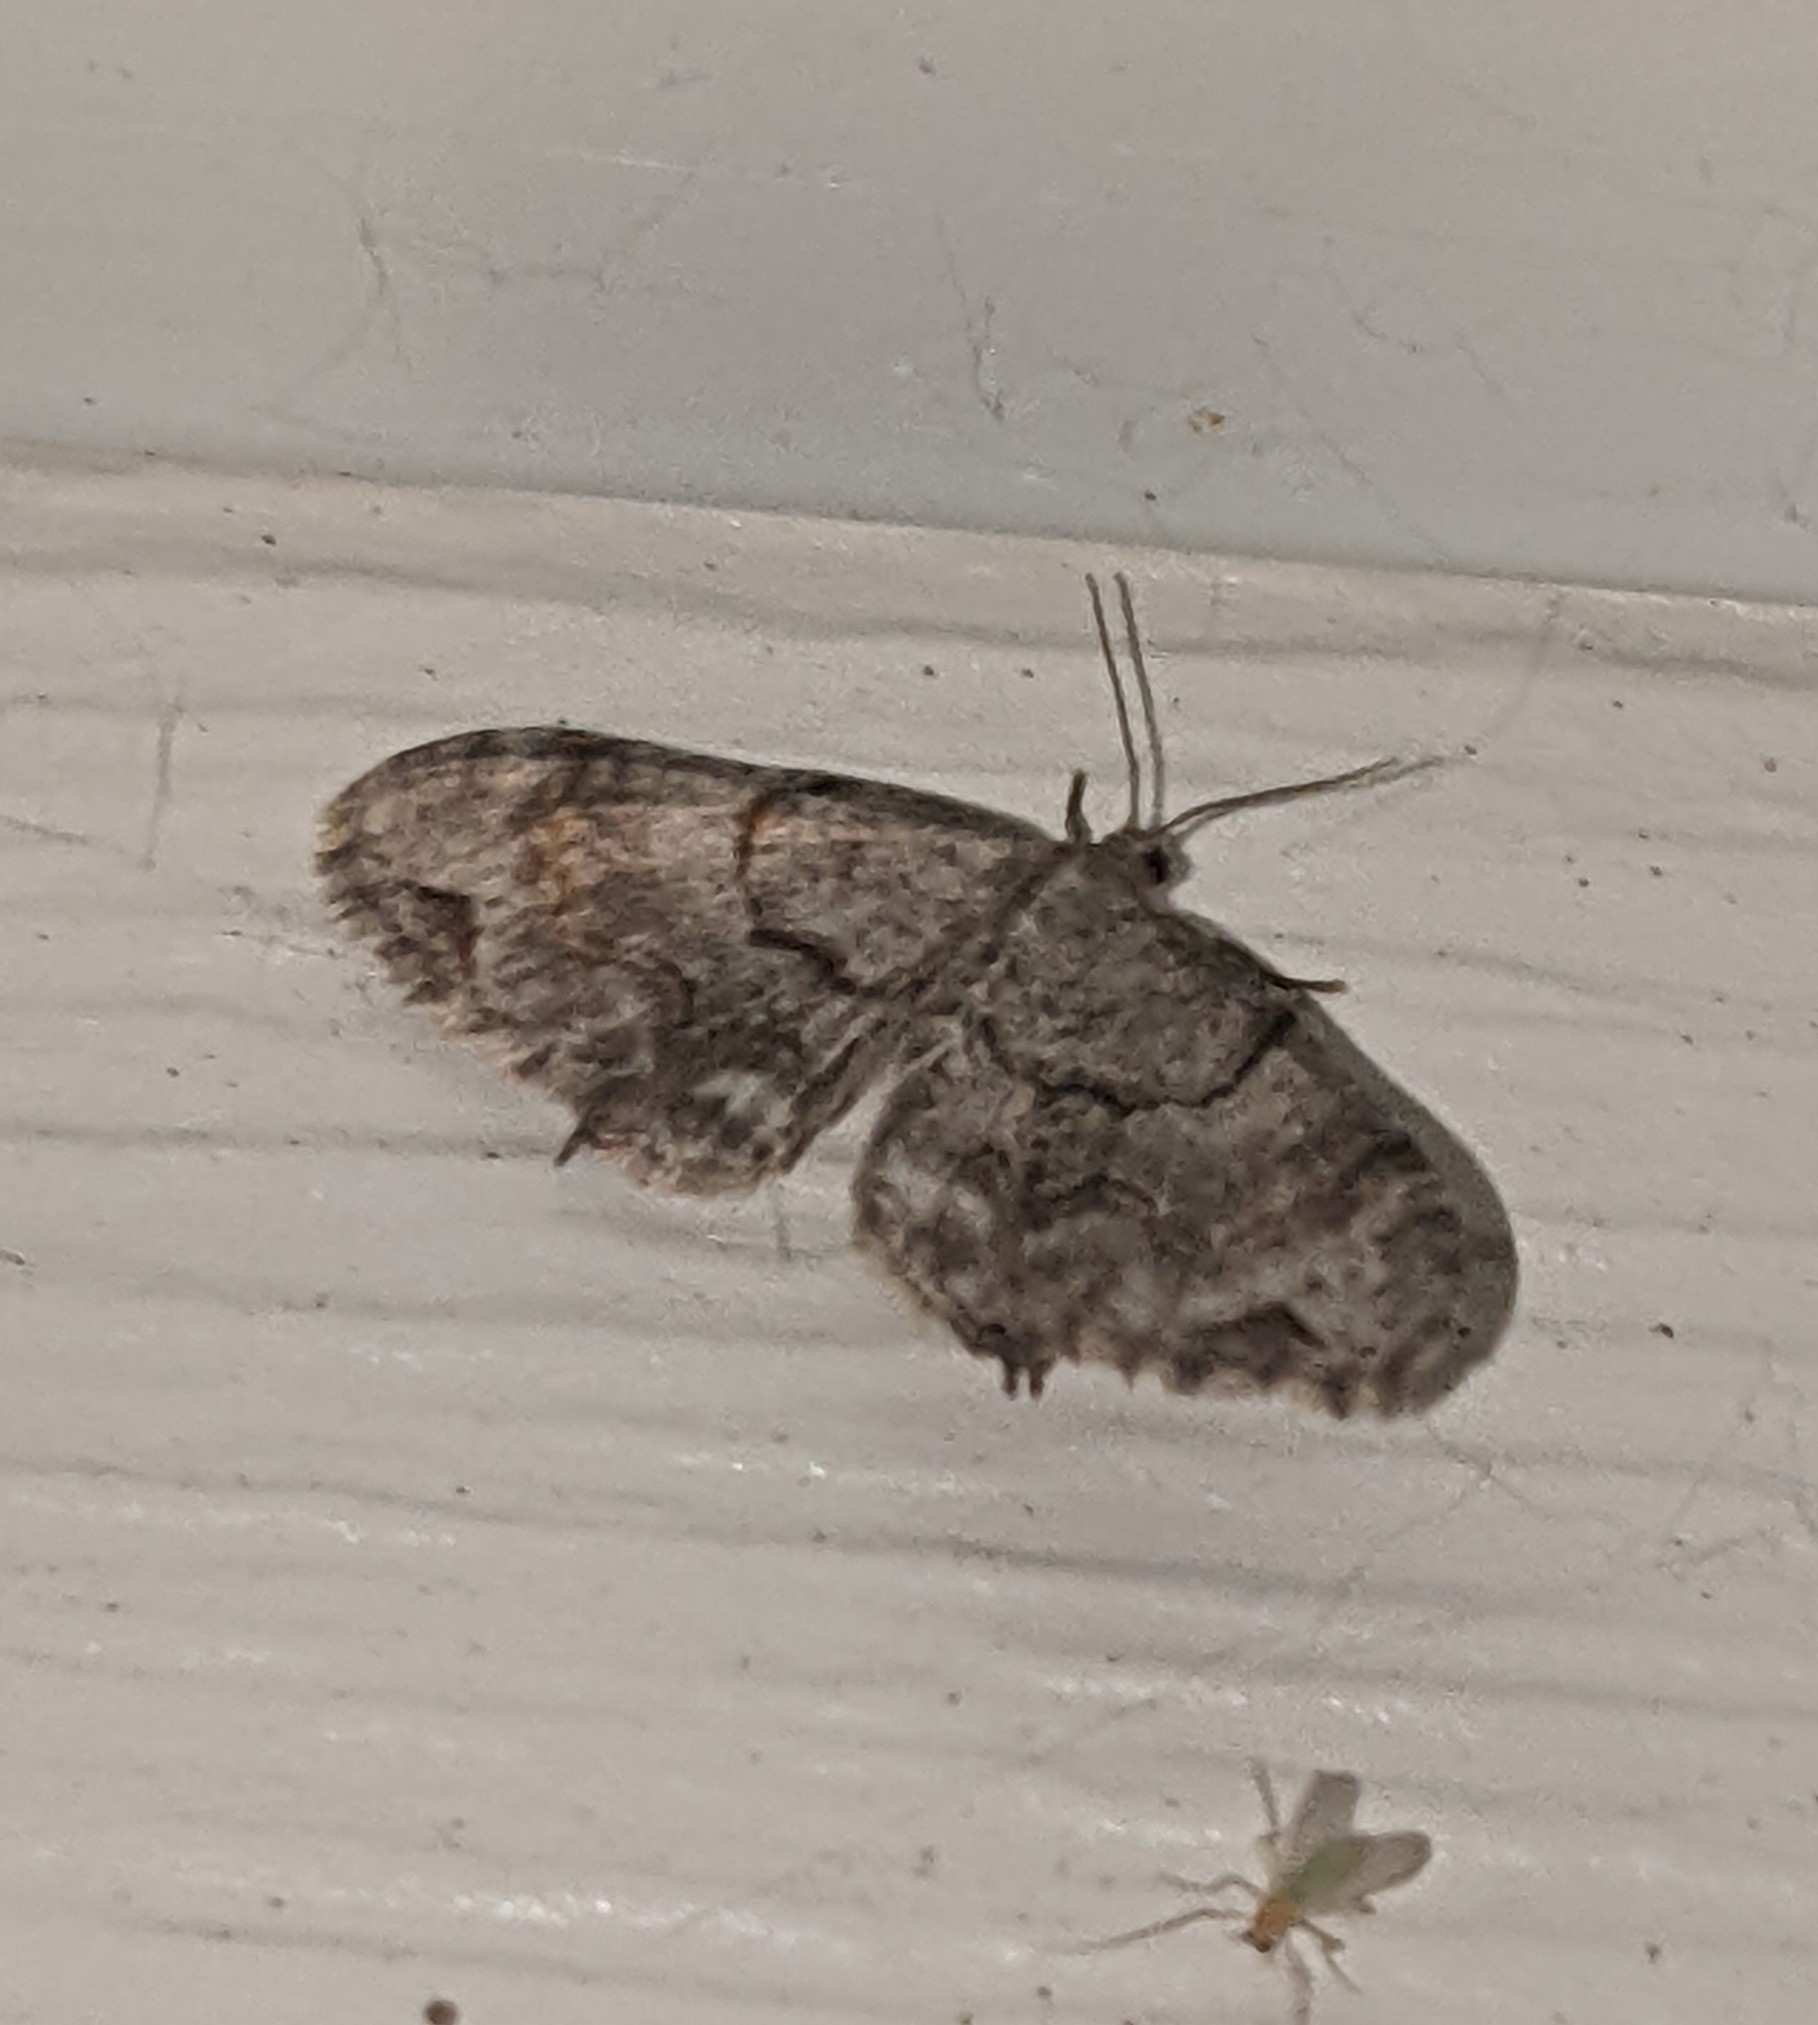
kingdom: Animalia
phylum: Arthropoda
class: Insecta
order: Lepidoptera
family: Uraniidae
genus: Epiplema
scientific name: Epiplema Callizzia amorata
